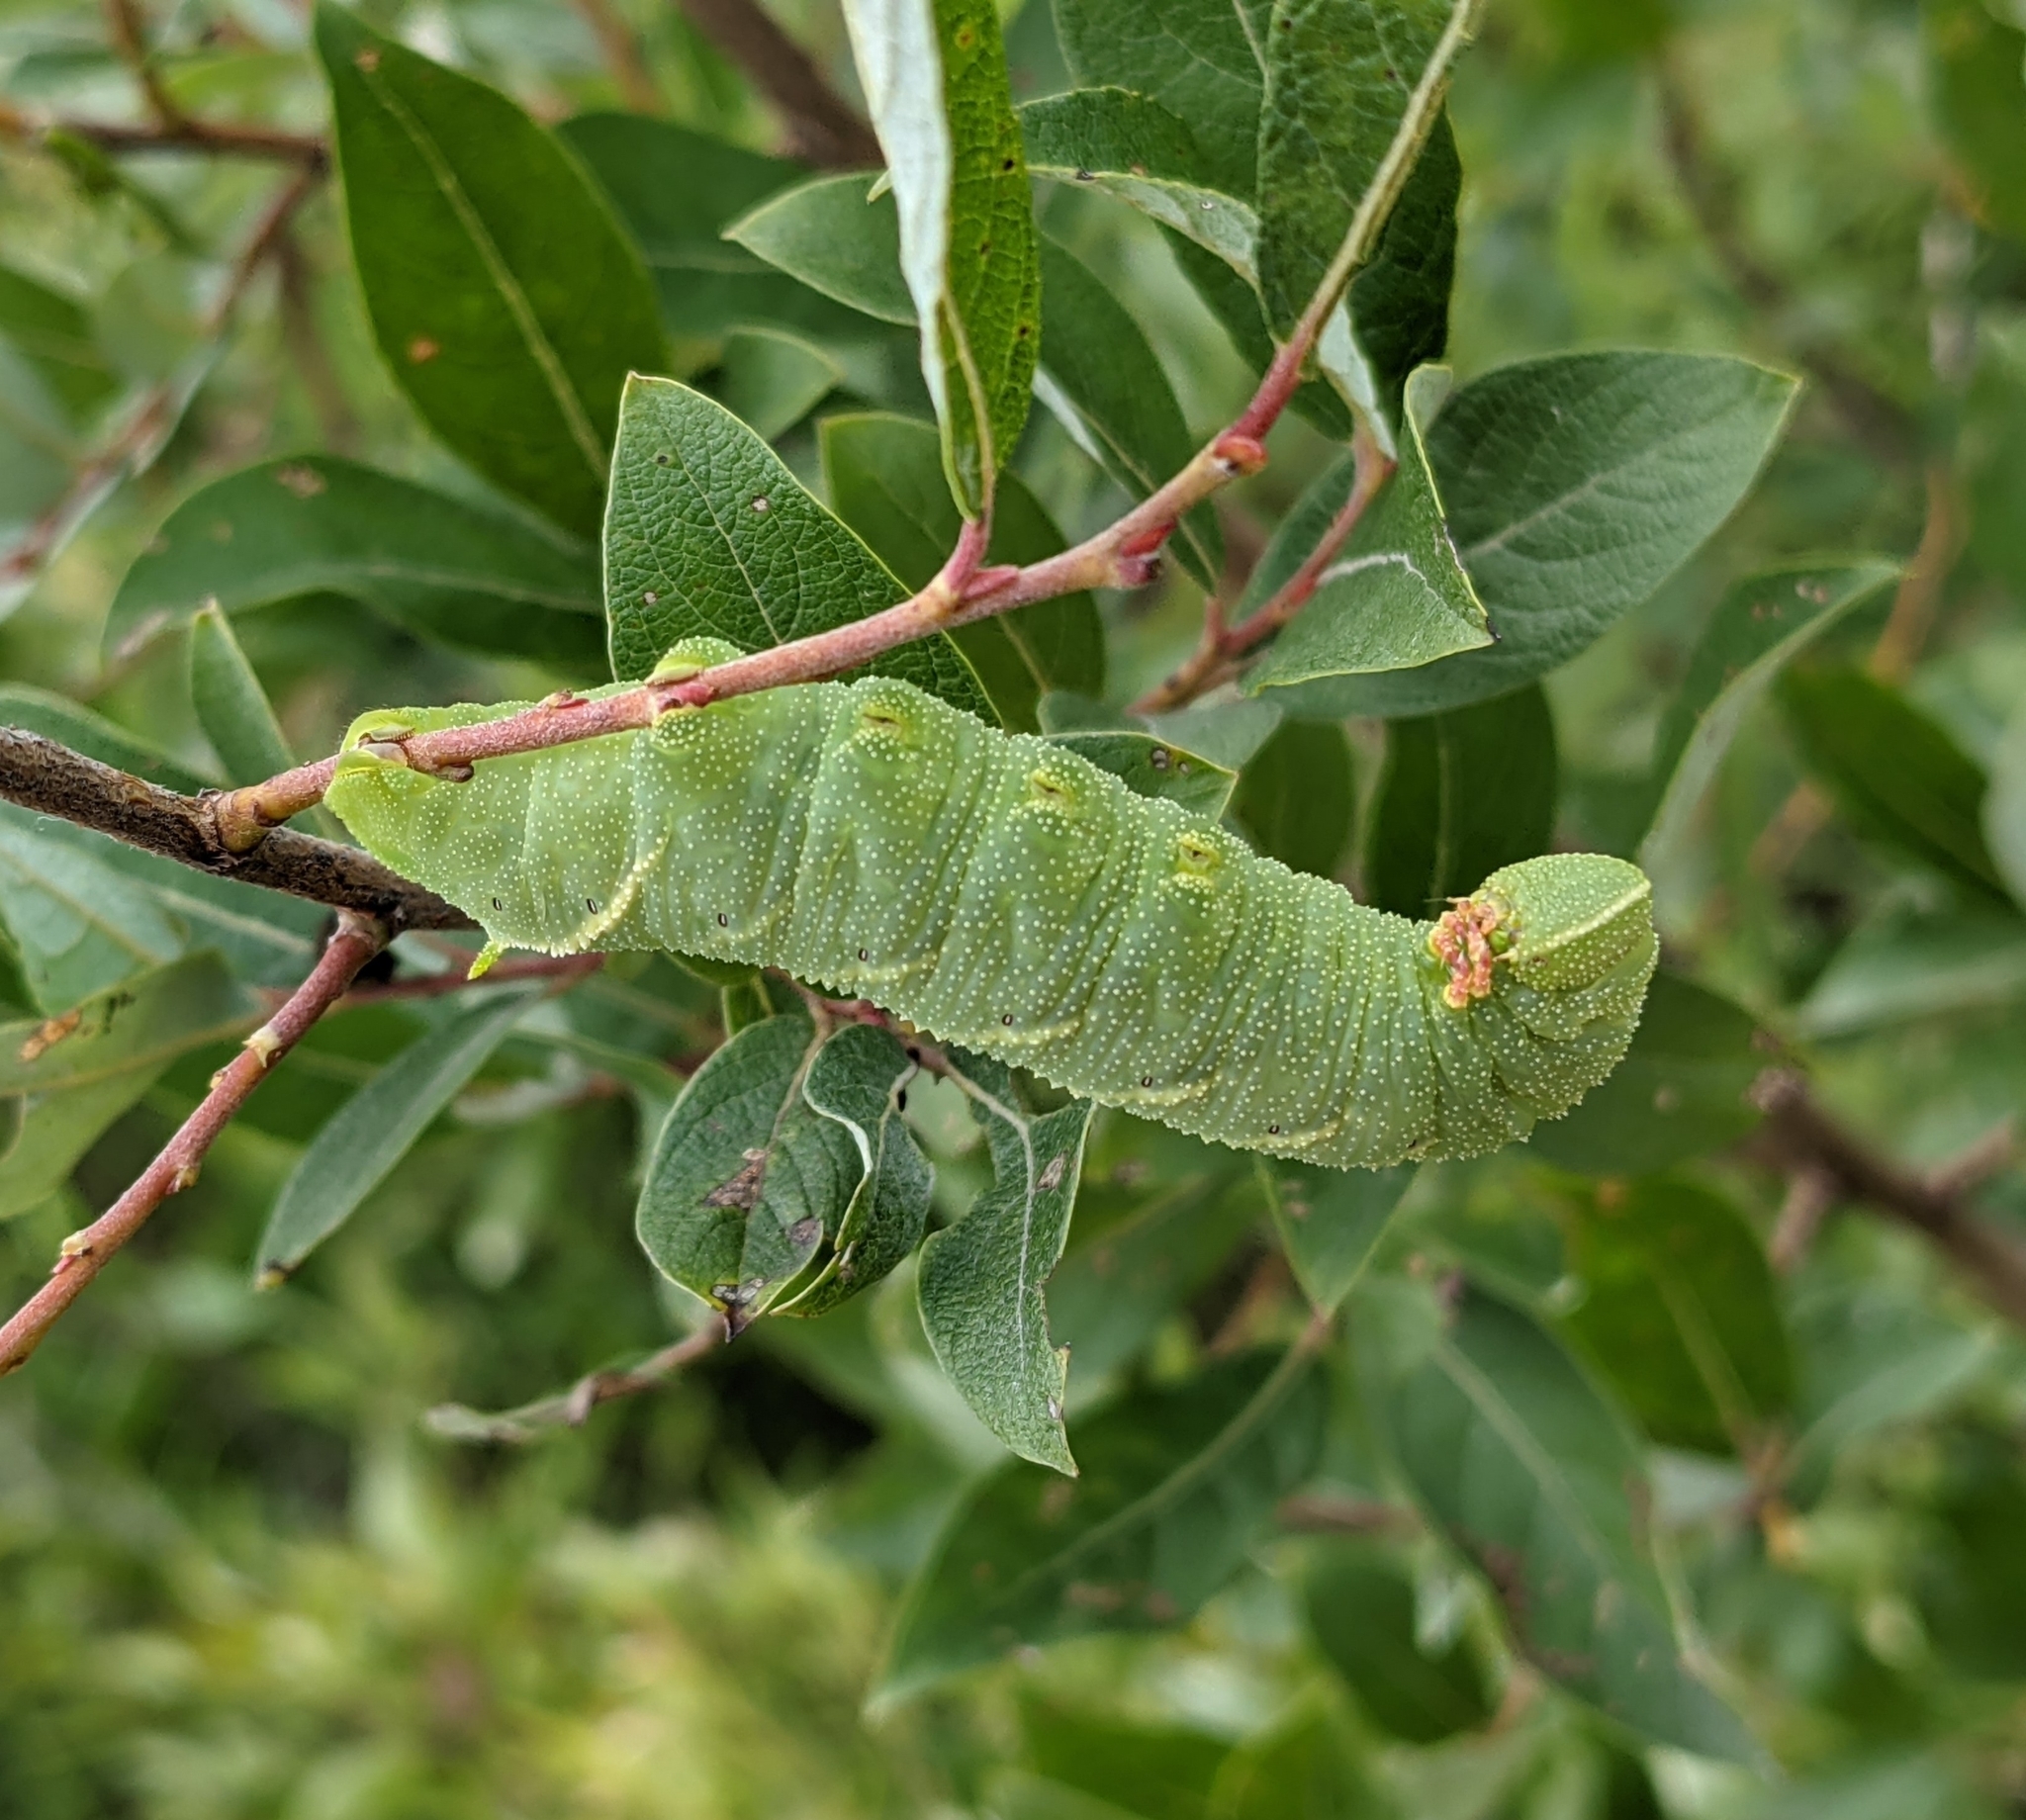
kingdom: Animalia
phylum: Arthropoda
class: Insecta
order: Lepidoptera
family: Sphingidae
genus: Paonias
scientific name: Paonias excaecata
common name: Blind-eyed sphinx
